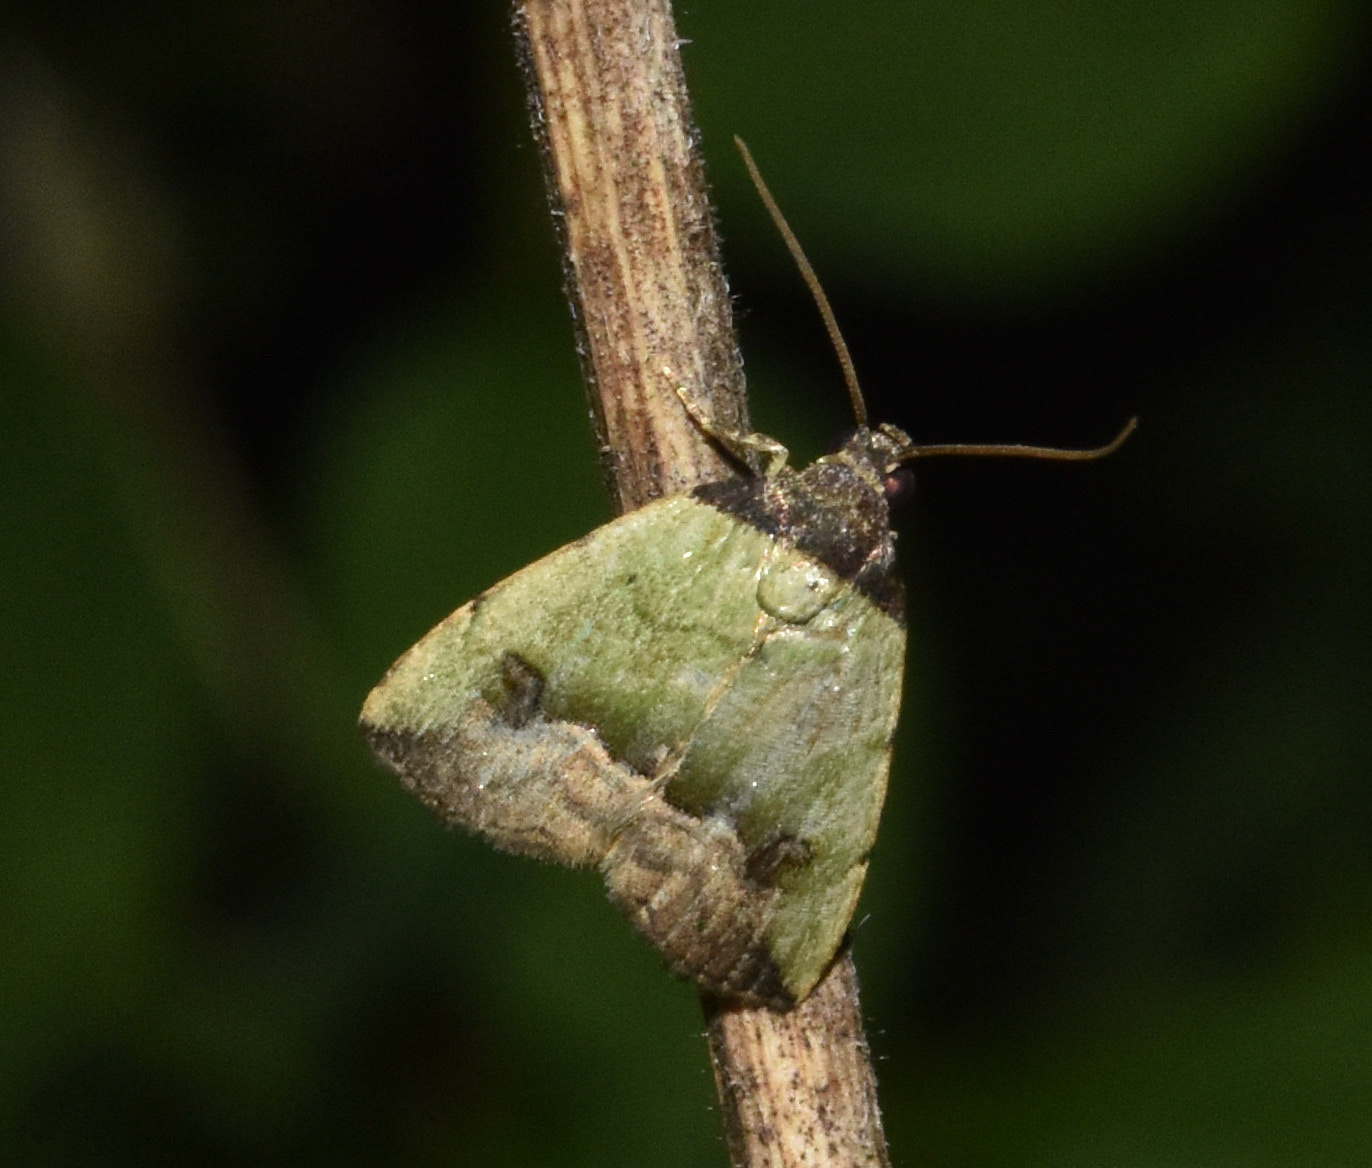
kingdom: Animalia
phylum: Arthropoda
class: Insecta
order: Lepidoptera
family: Noctuidae
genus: Ozarba
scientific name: Ozarba nigroviridis
